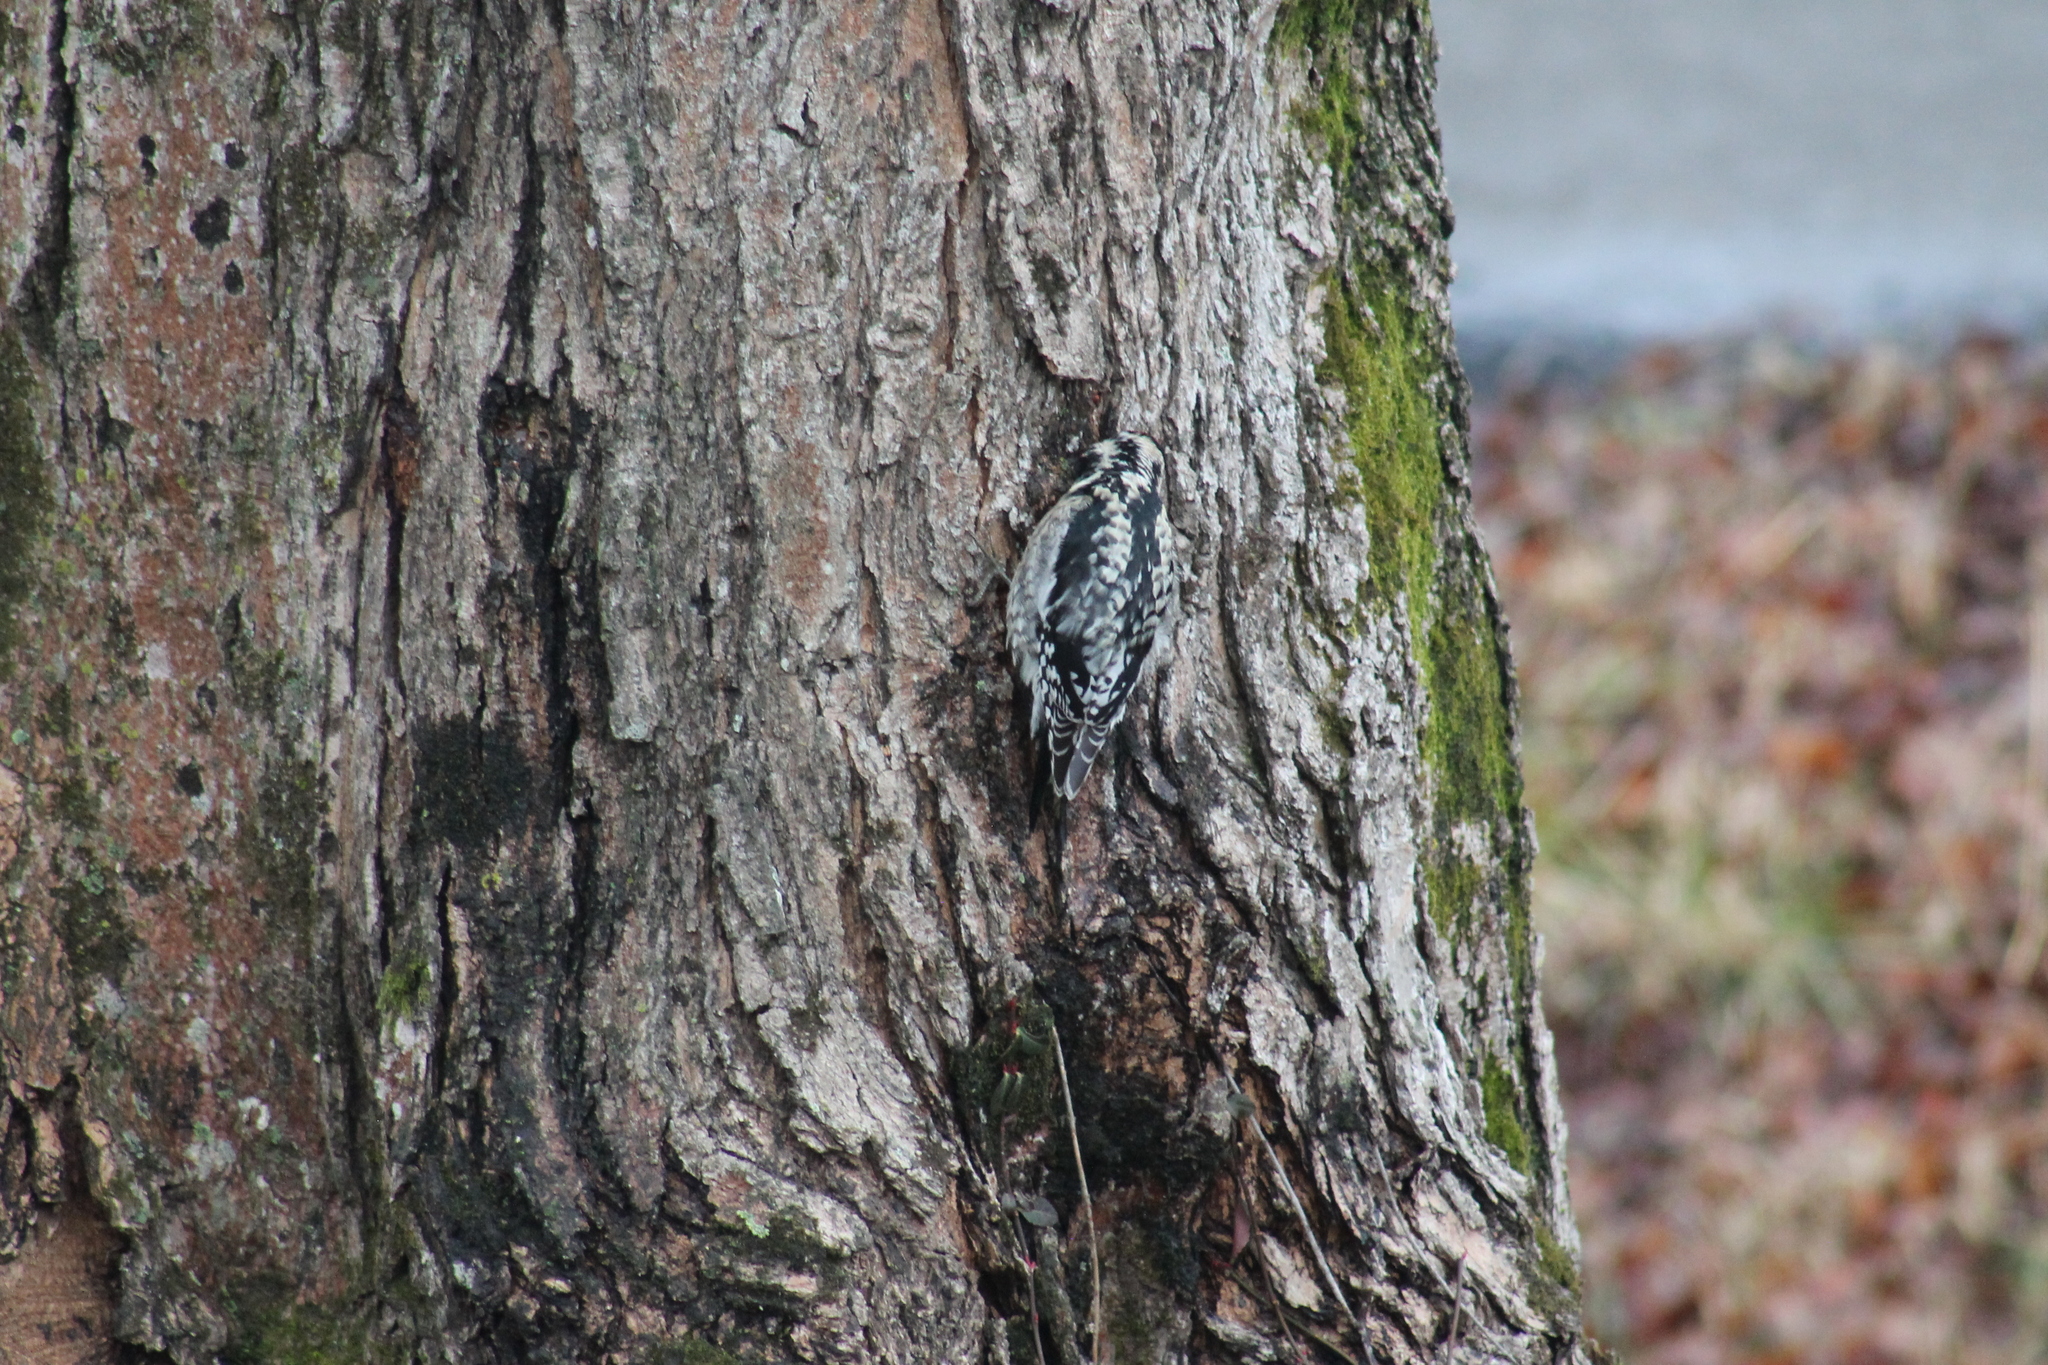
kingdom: Animalia
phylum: Chordata
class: Aves
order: Piciformes
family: Picidae
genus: Sphyrapicus
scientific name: Sphyrapicus varius
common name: Yellow-bellied sapsucker
